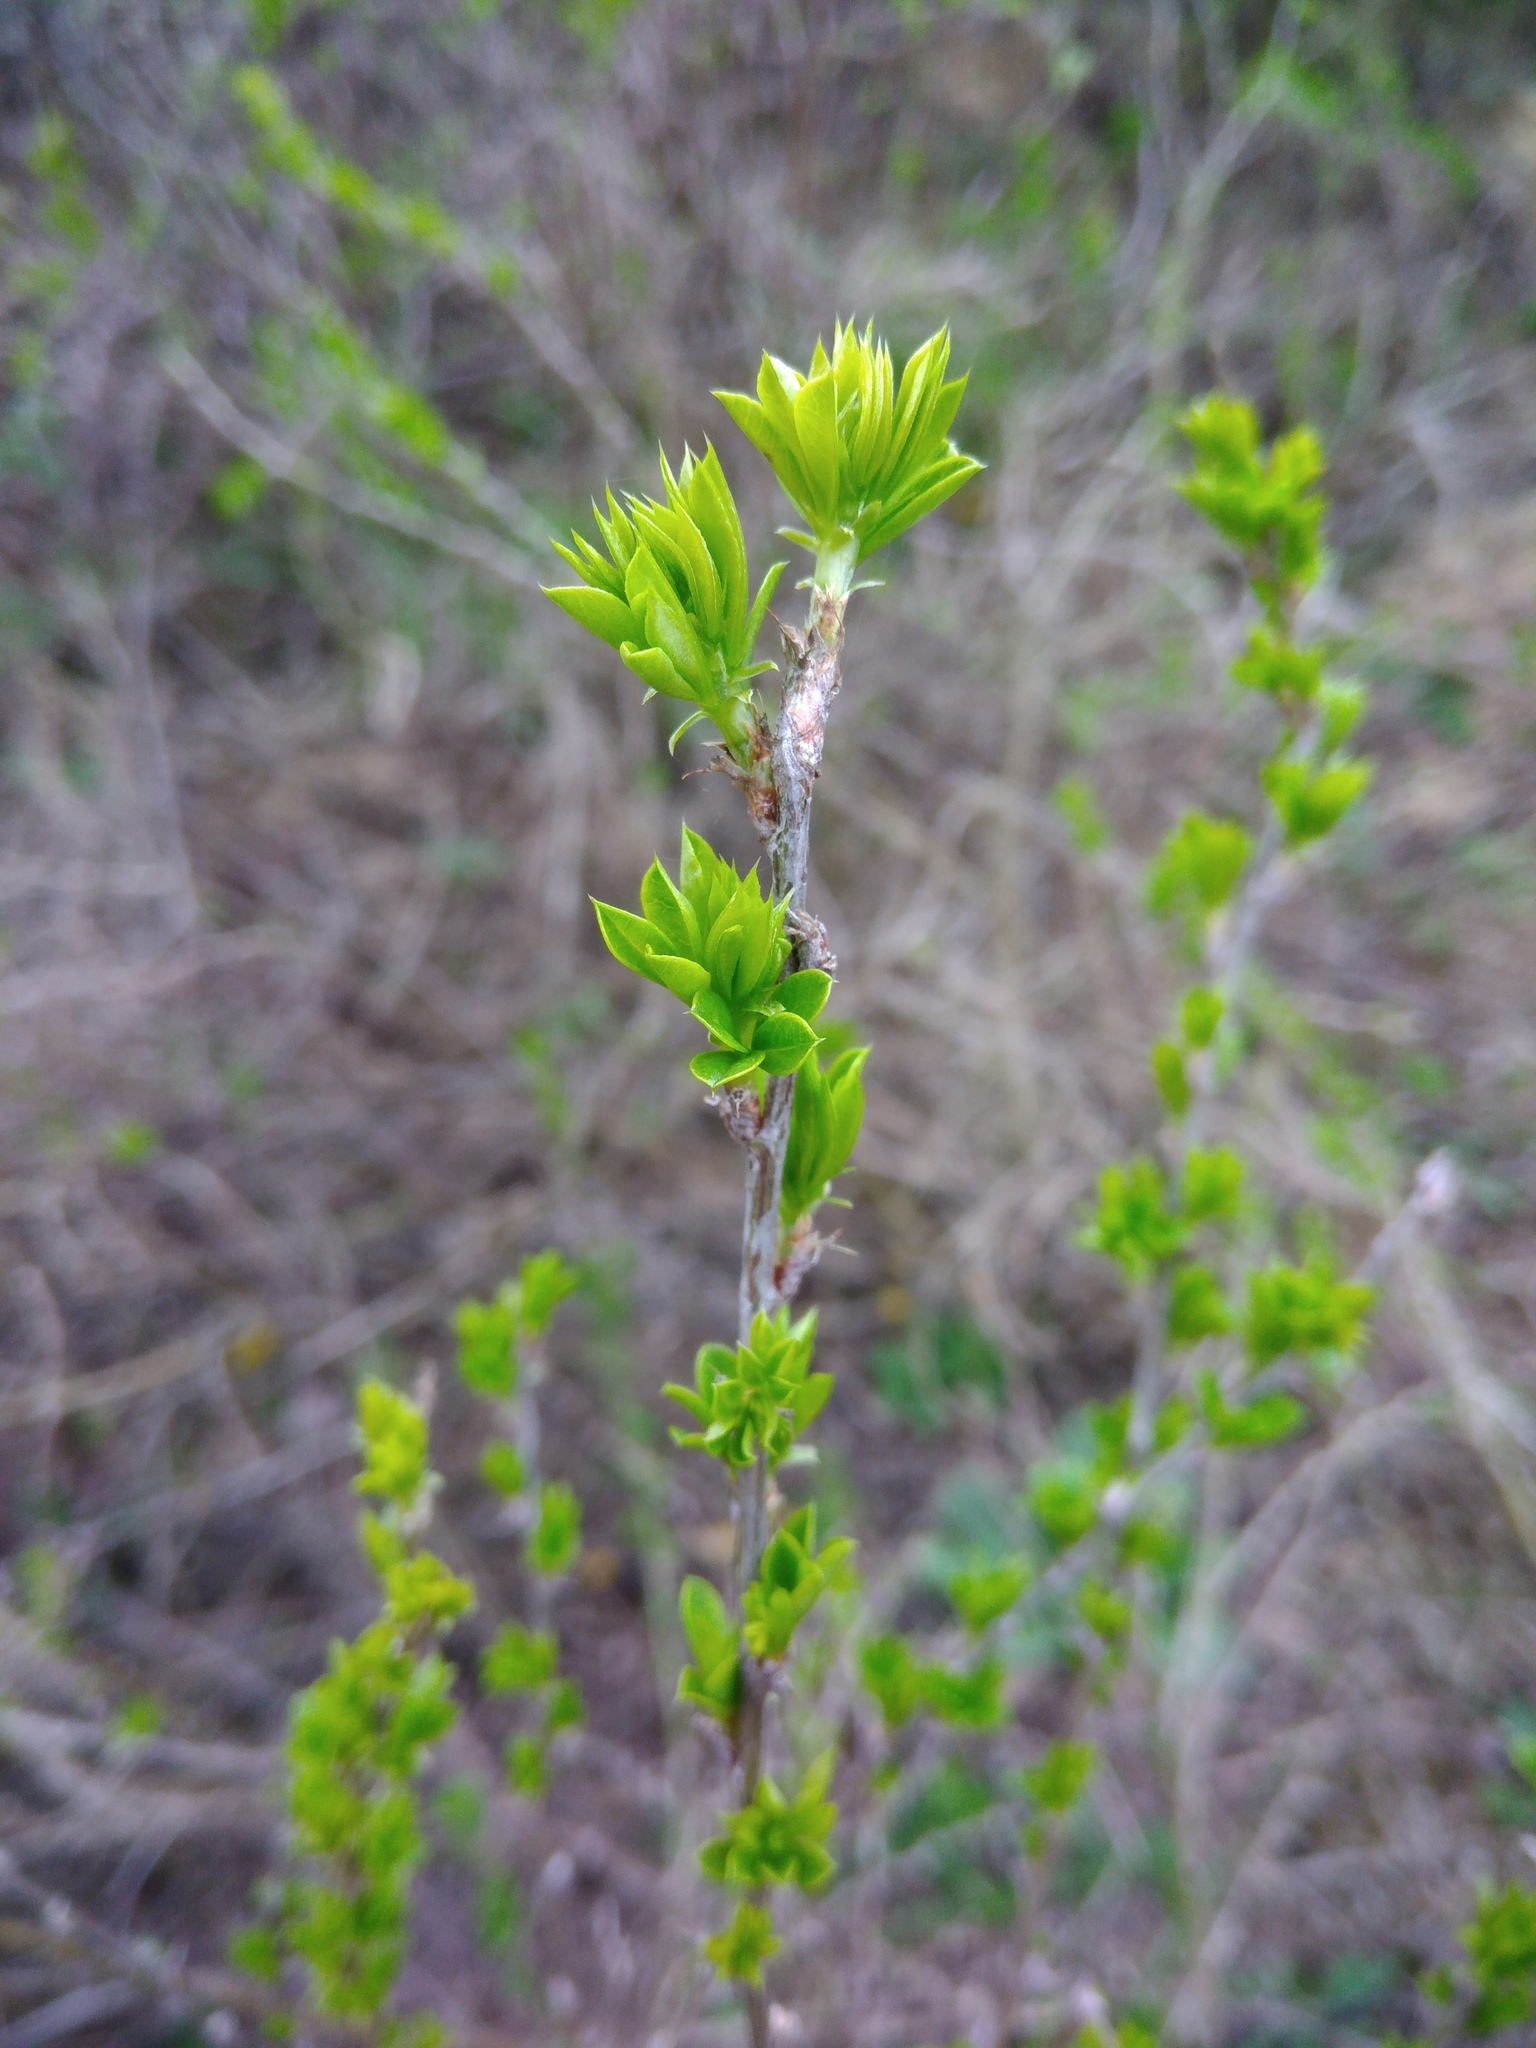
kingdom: Plantae
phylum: Tracheophyta
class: Magnoliopsida
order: Fabales
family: Fabaceae
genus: Caragana
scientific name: Caragana frutex
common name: Russian peashrub
